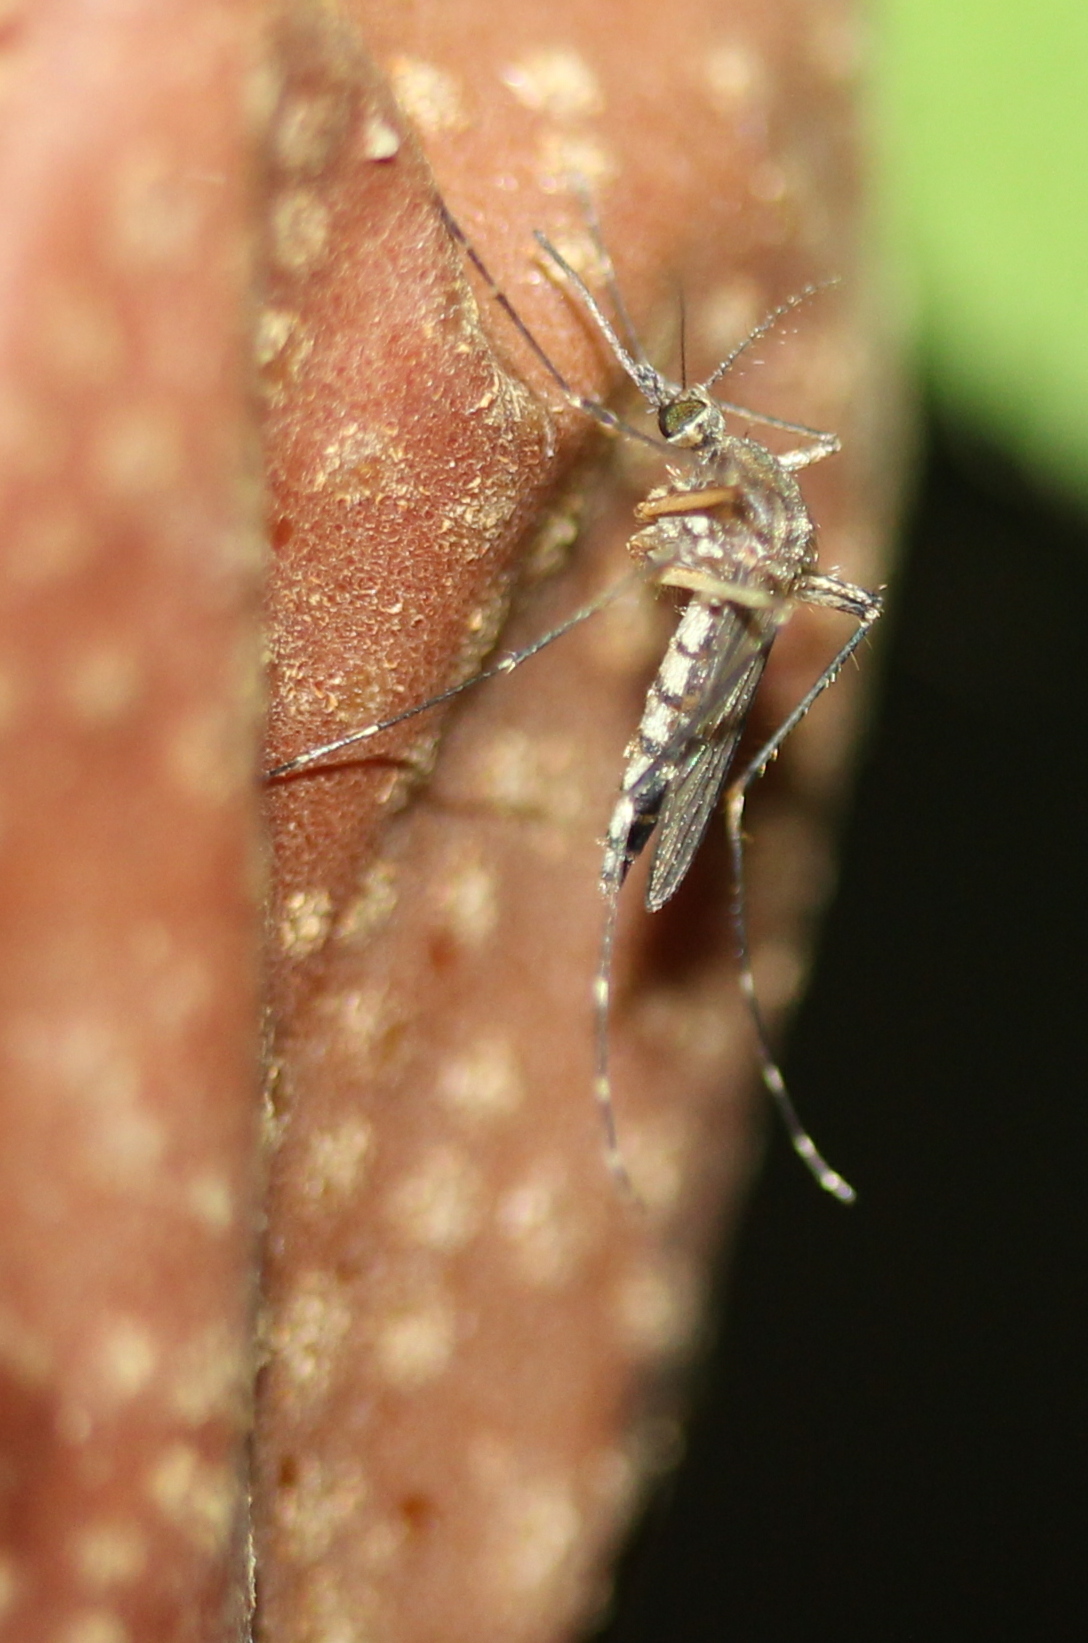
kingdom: Animalia
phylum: Arthropoda
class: Insecta
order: Diptera
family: Culicidae
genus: Aedes
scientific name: Aedes vexans
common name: Inland floodwater mosquito
